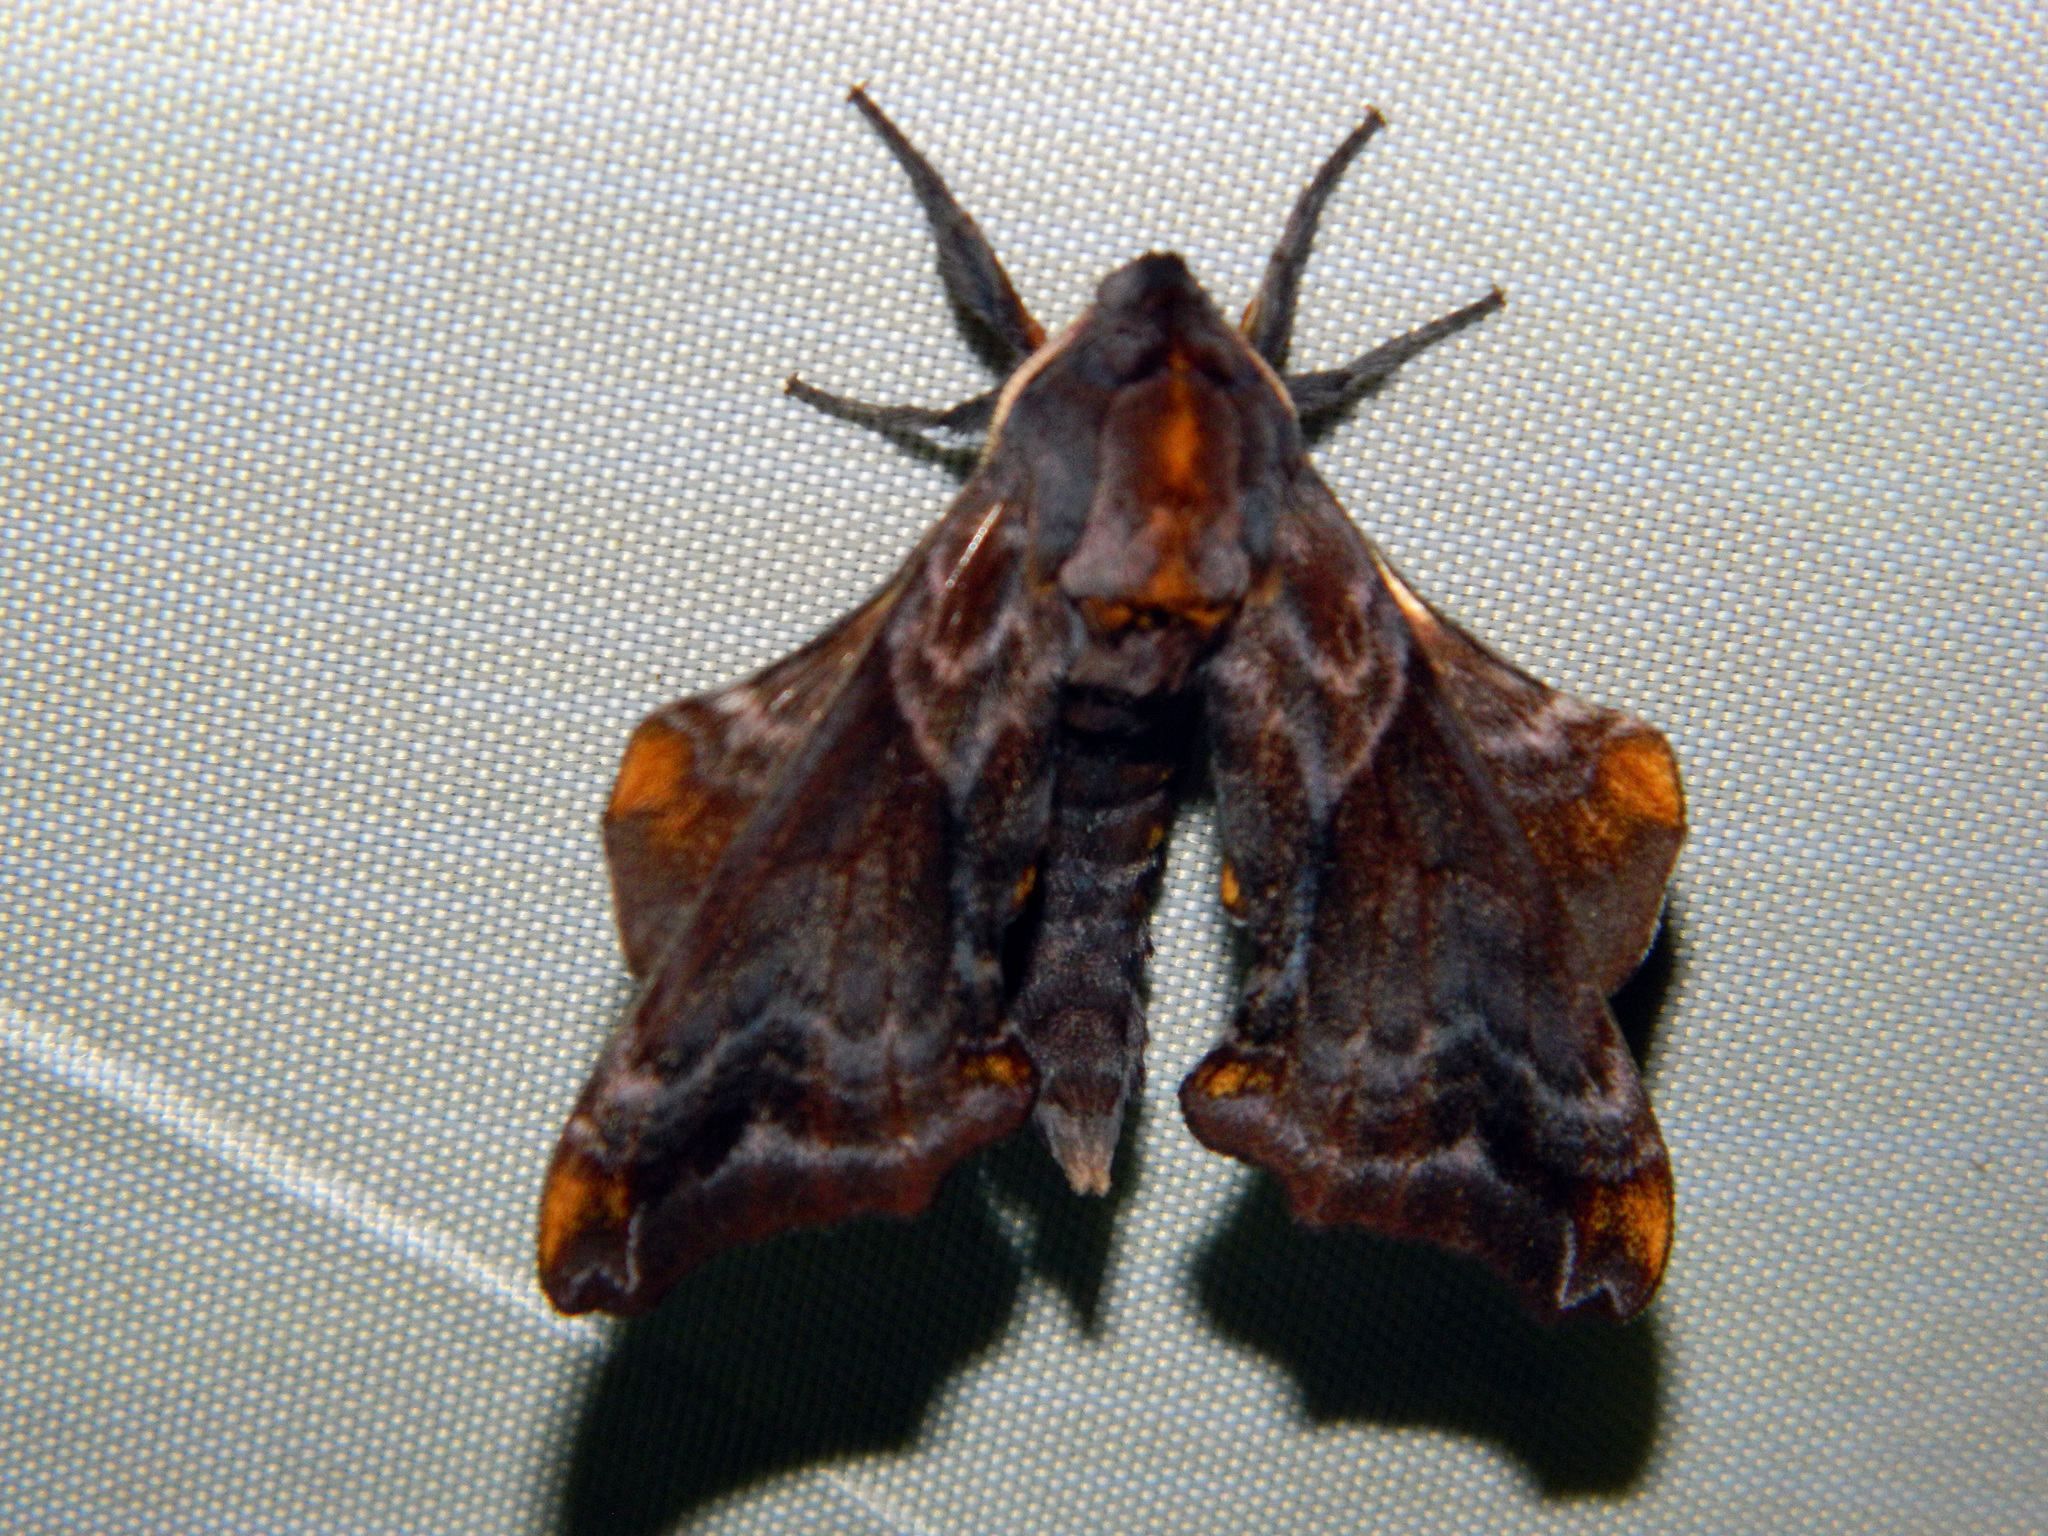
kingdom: Animalia
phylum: Arthropoda
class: Insecta
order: Lepidoptera
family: Sphingidae
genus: Paonias
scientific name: Paonias myops
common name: Small-eyed sphinx
